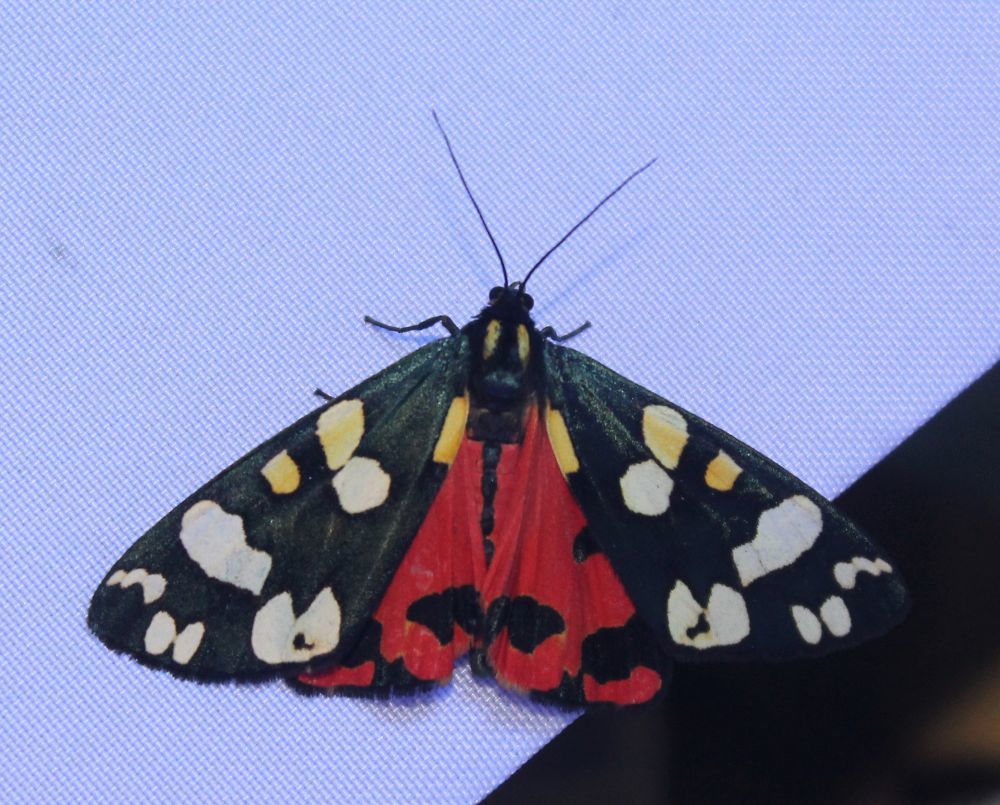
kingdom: Animalia
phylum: Arthropoda
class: Insecta
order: Lepidoptera
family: Erebidae
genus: Callimorpha
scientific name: Callimorpha dominula
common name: Scarlet tiger
